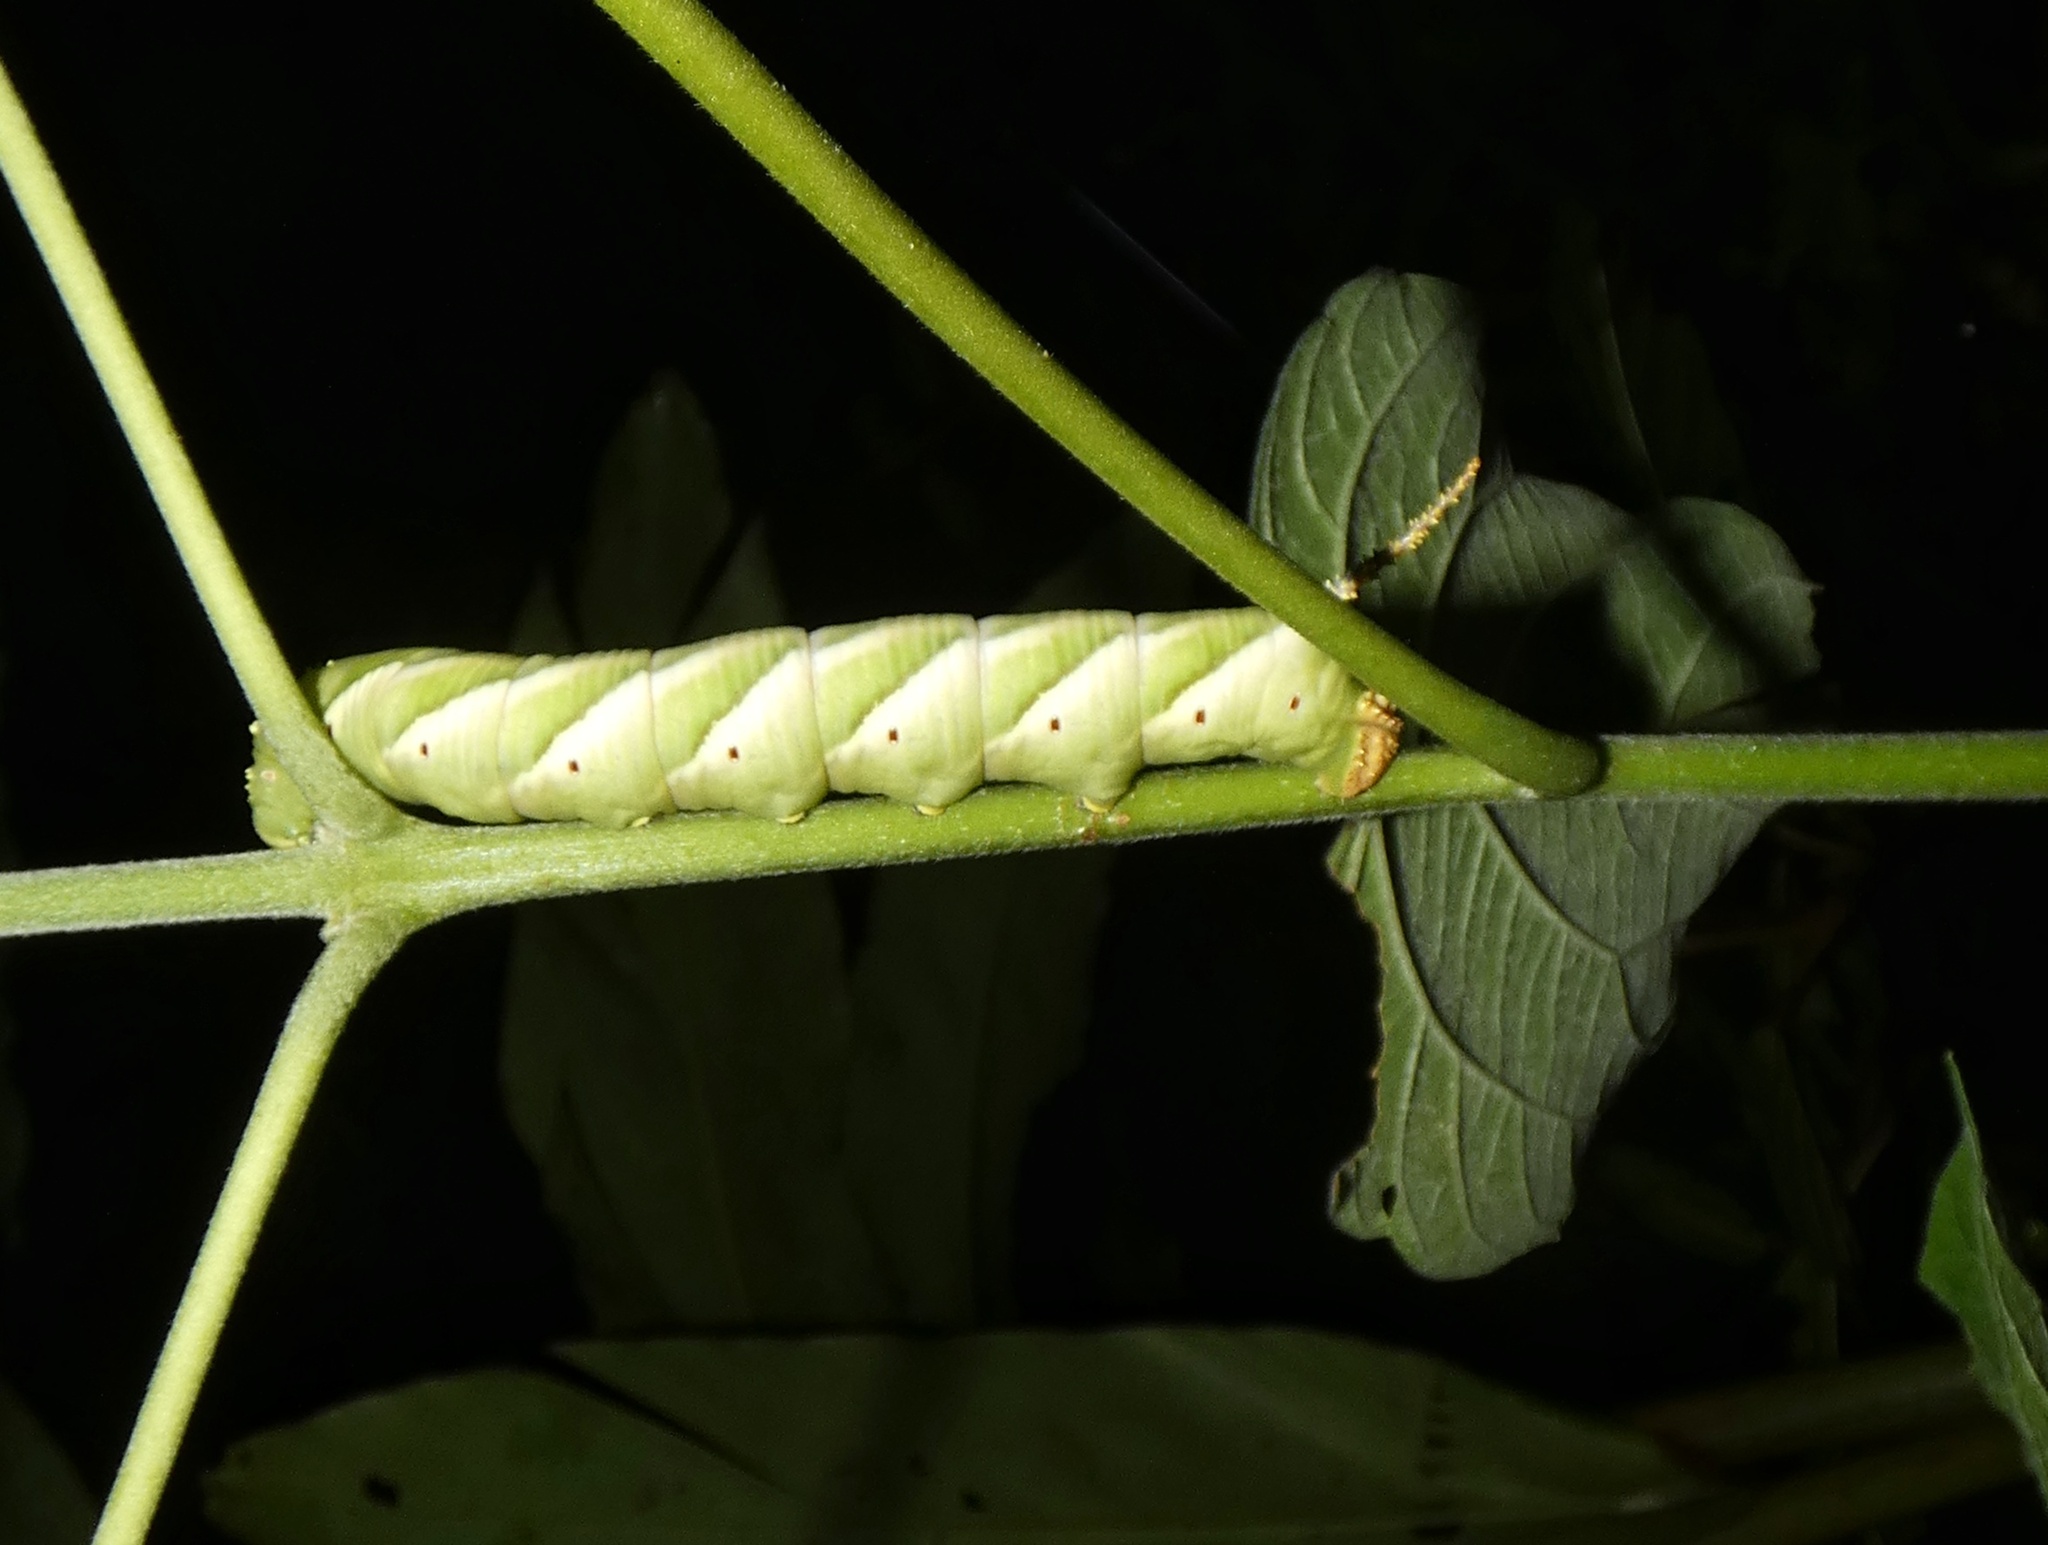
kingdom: Animalia
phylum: Arthropoda
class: Insecta
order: Lepidoptera
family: Sphingidae
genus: Psilogramma
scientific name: Psilogramma menephron
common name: Gray hawk moth
